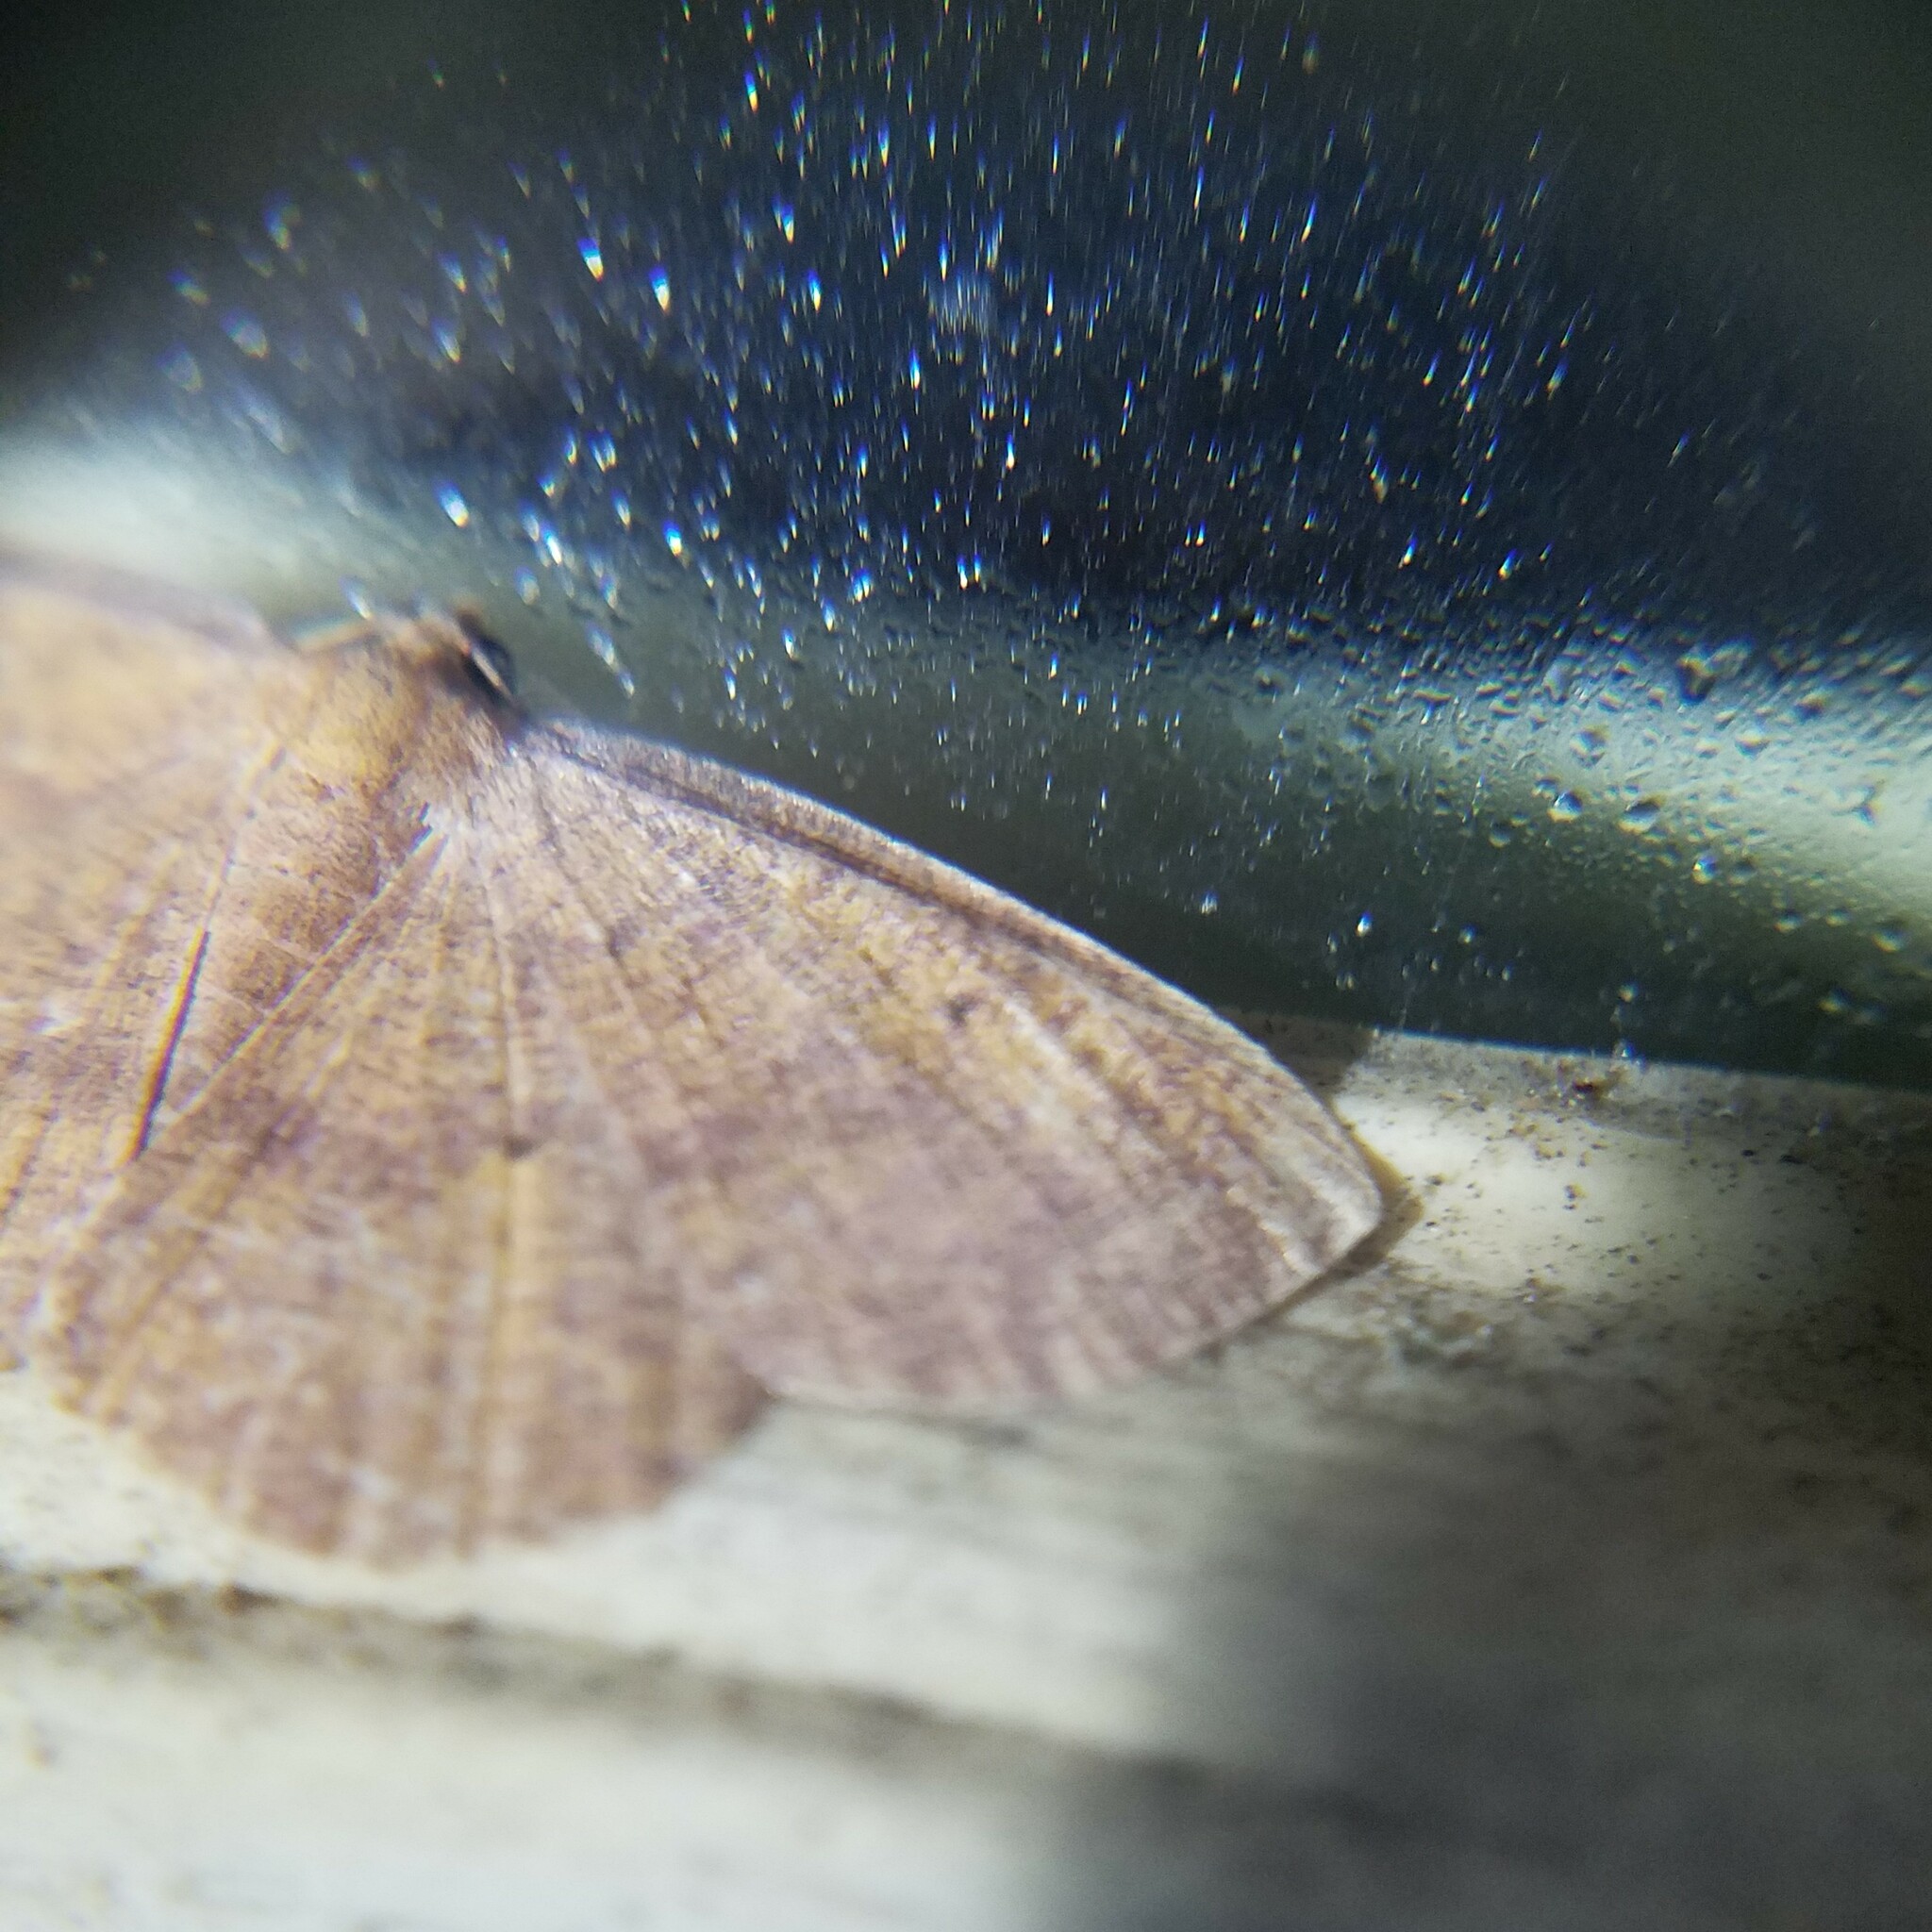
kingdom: Animalia
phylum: Arthropoda
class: Insecta
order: Lepidoptera
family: Geometridae
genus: Ilexia
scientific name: Ilexia intractata
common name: Black-dotted ruddy moth
